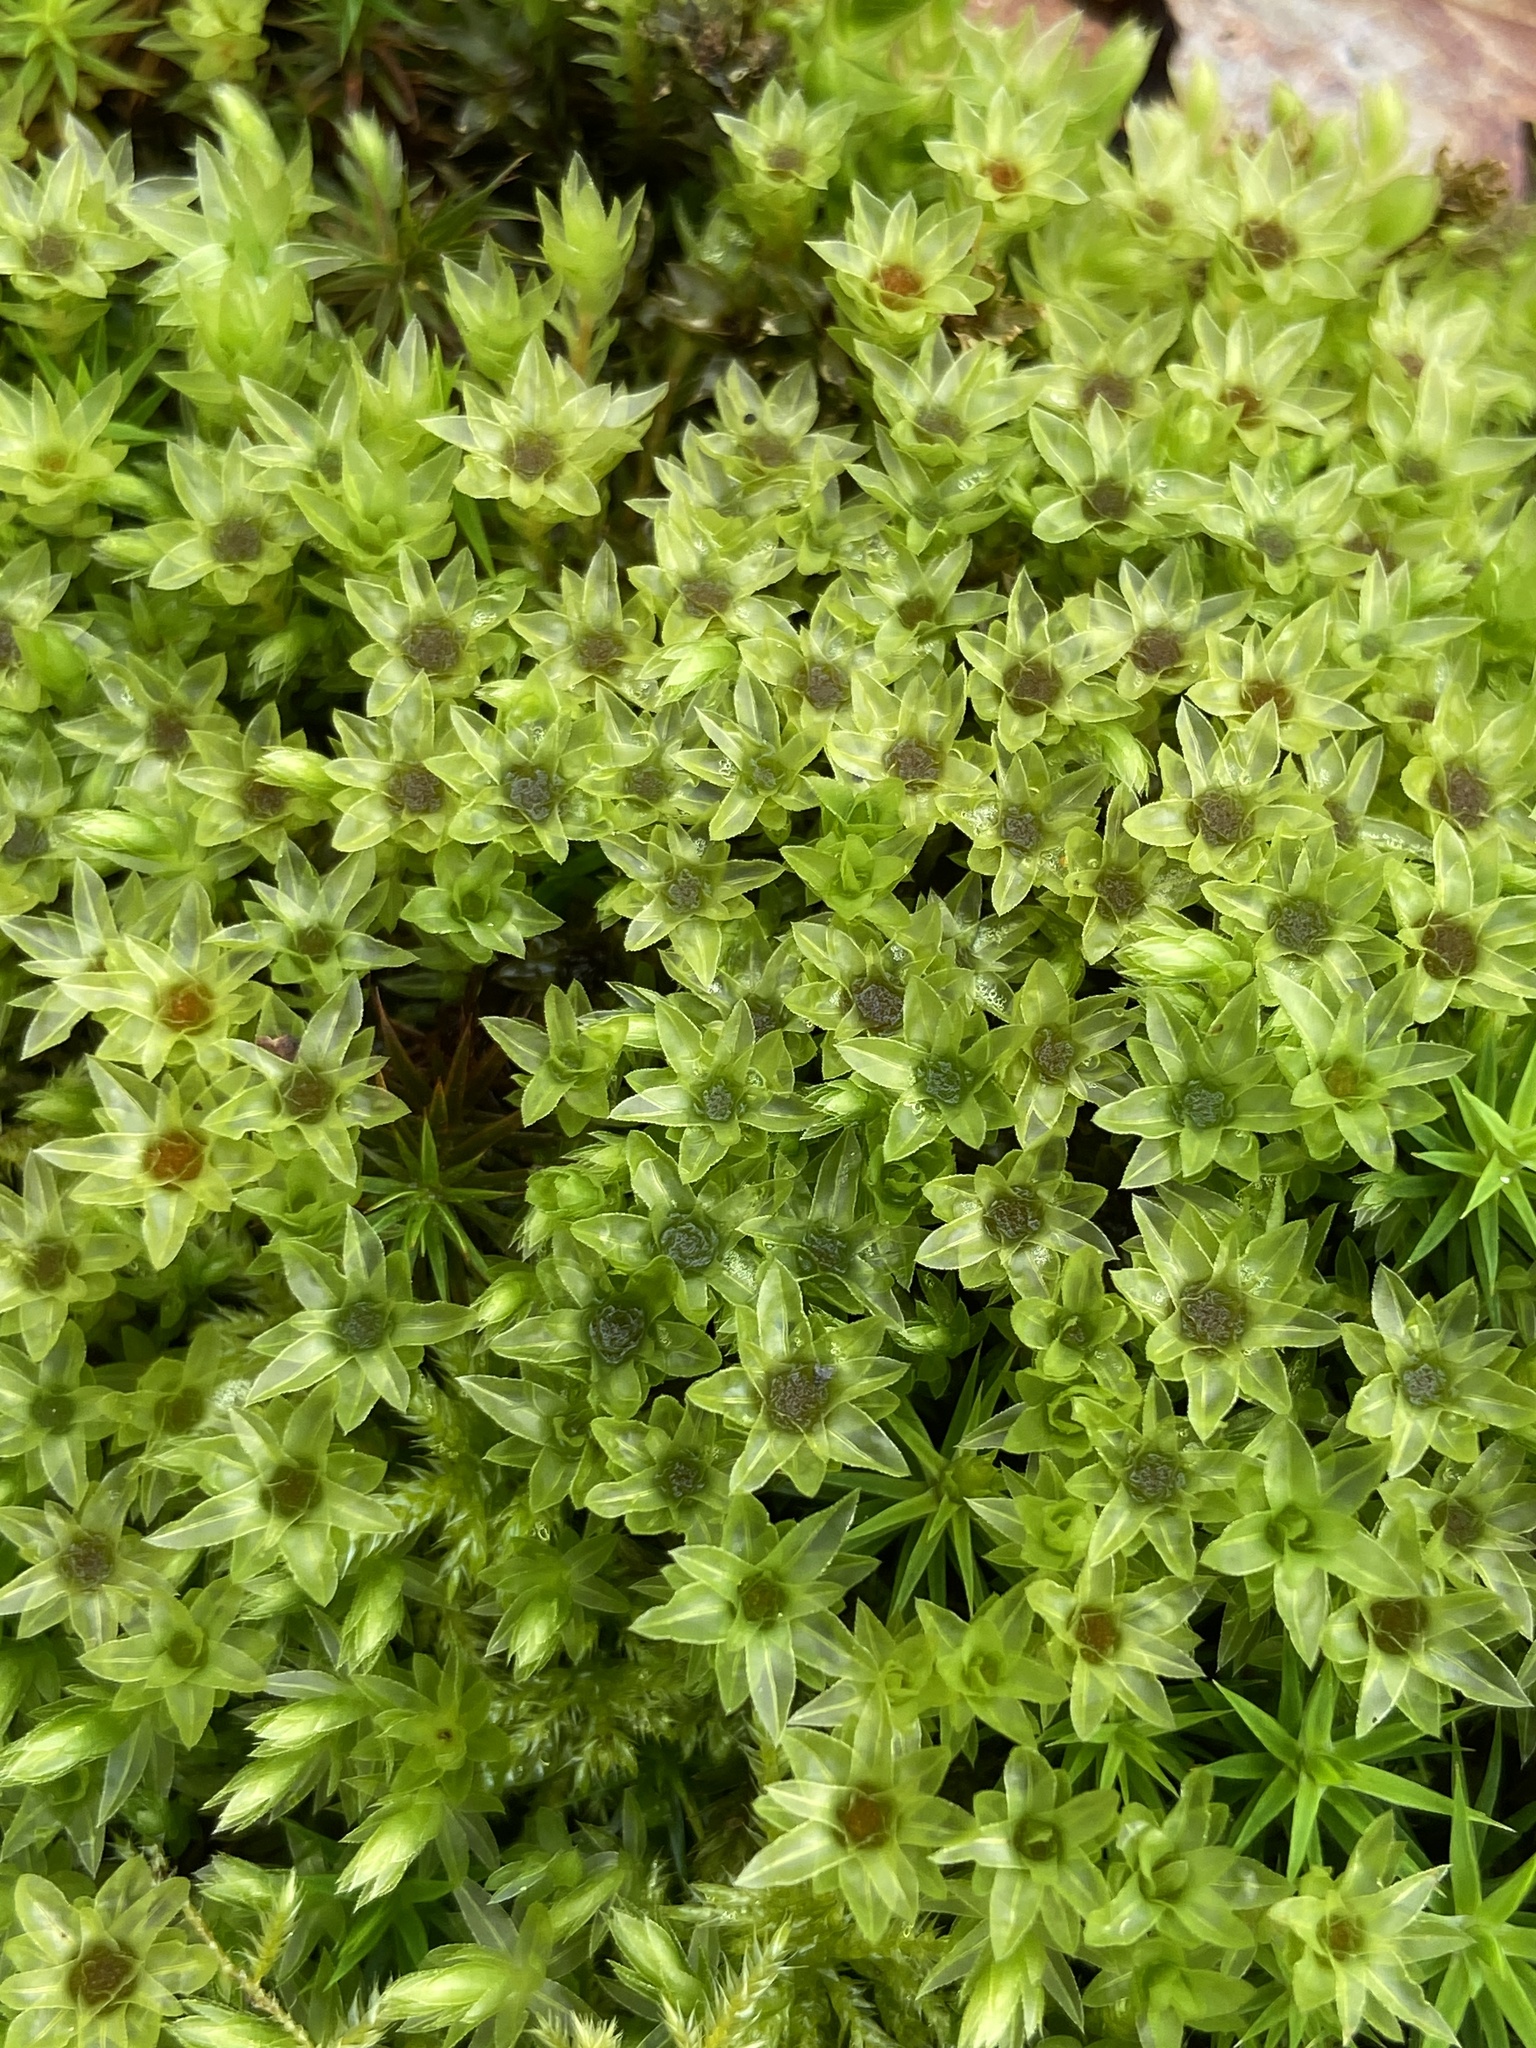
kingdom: Plantae
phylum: Bryophyta
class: Bryopsida
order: Bryales
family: Mniaceae
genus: Mnium
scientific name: Mnium hornum
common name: Swan's-neck leafy moss
